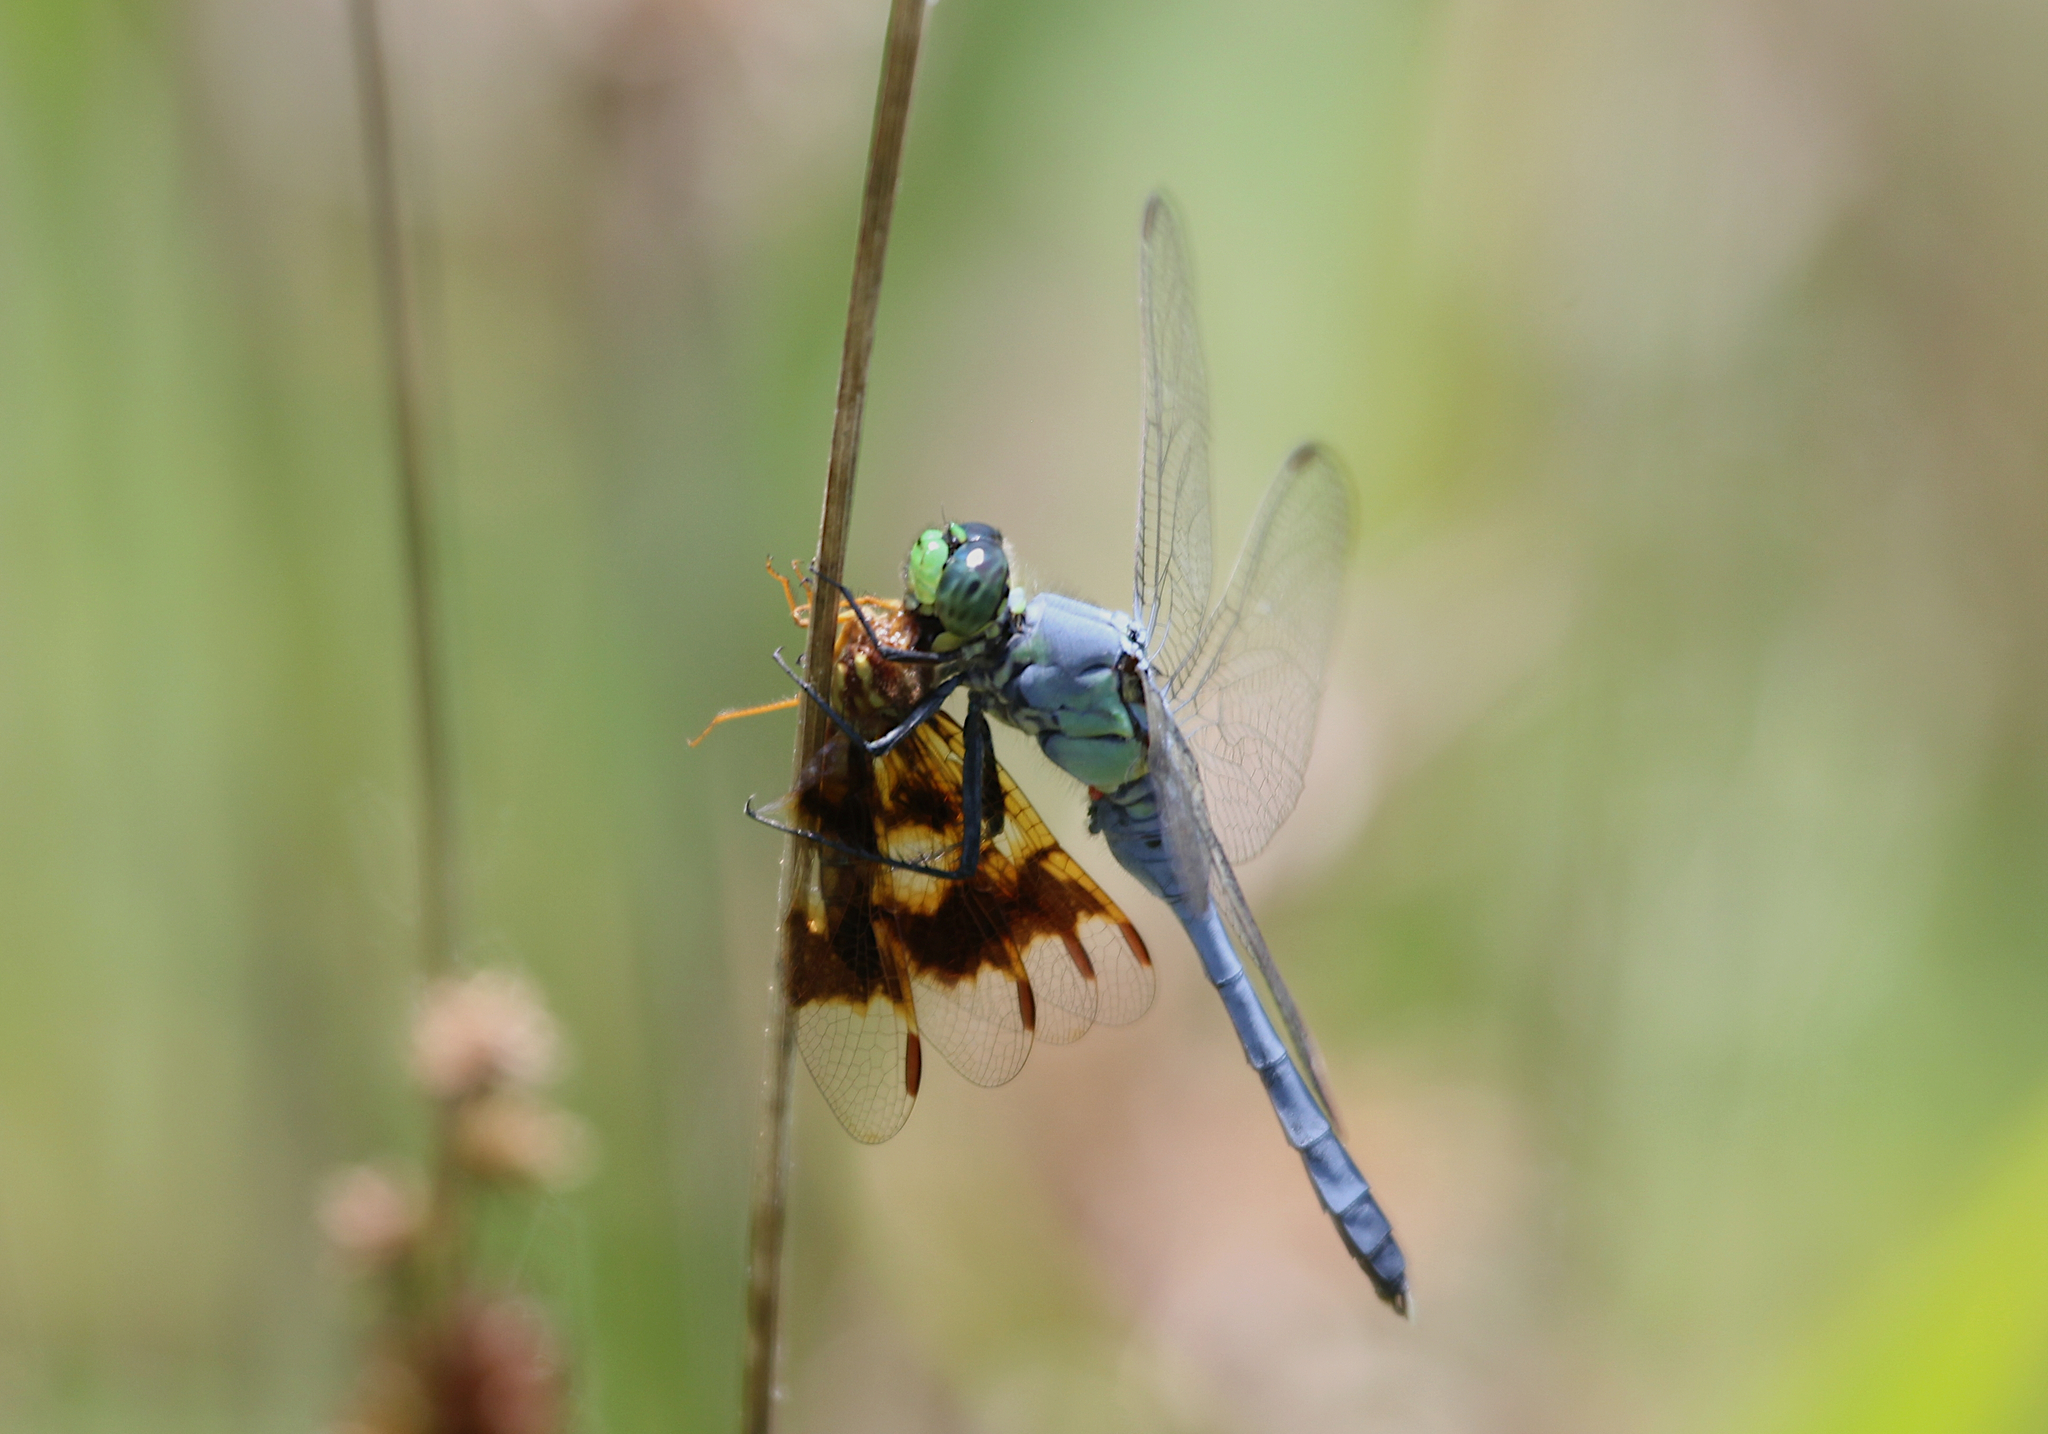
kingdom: Animalia
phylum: Arthropoda
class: Insecta
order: Odonata
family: Libellulidae
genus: Erythemis
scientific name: Erythemis simplicicollis
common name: Eastern pondhawk
